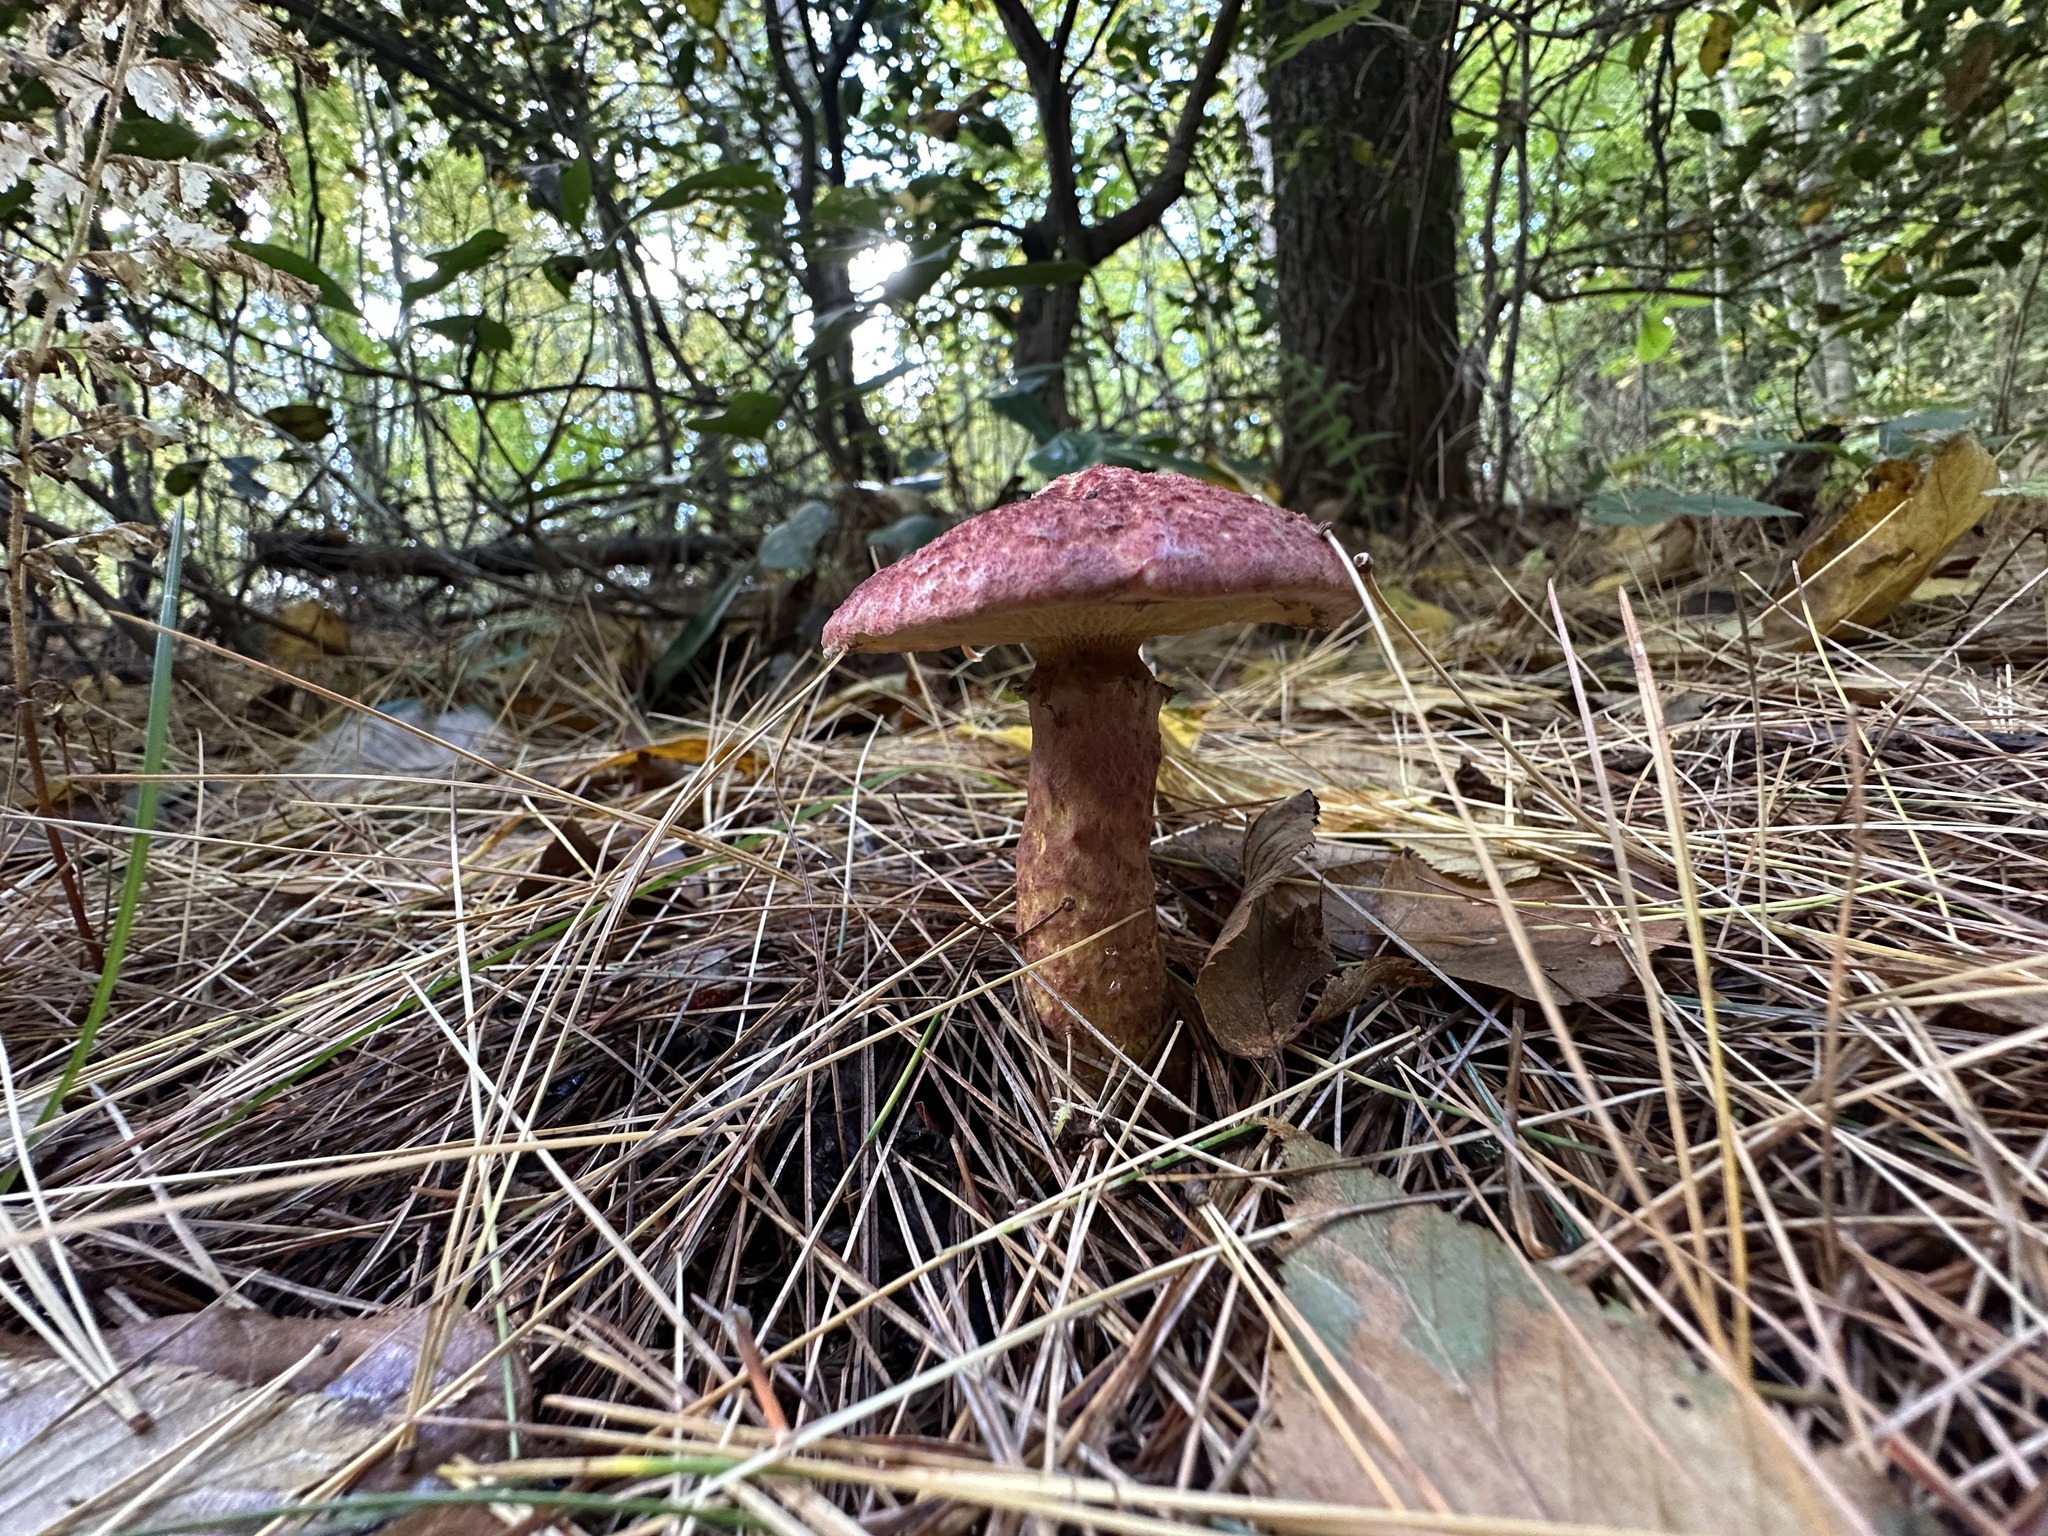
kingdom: Fungi
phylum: Basidiomycota
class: Agaricomycetes
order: Boletales
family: Suillaceae
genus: Suillus
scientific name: Suillus spraguei
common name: Painted suillus
